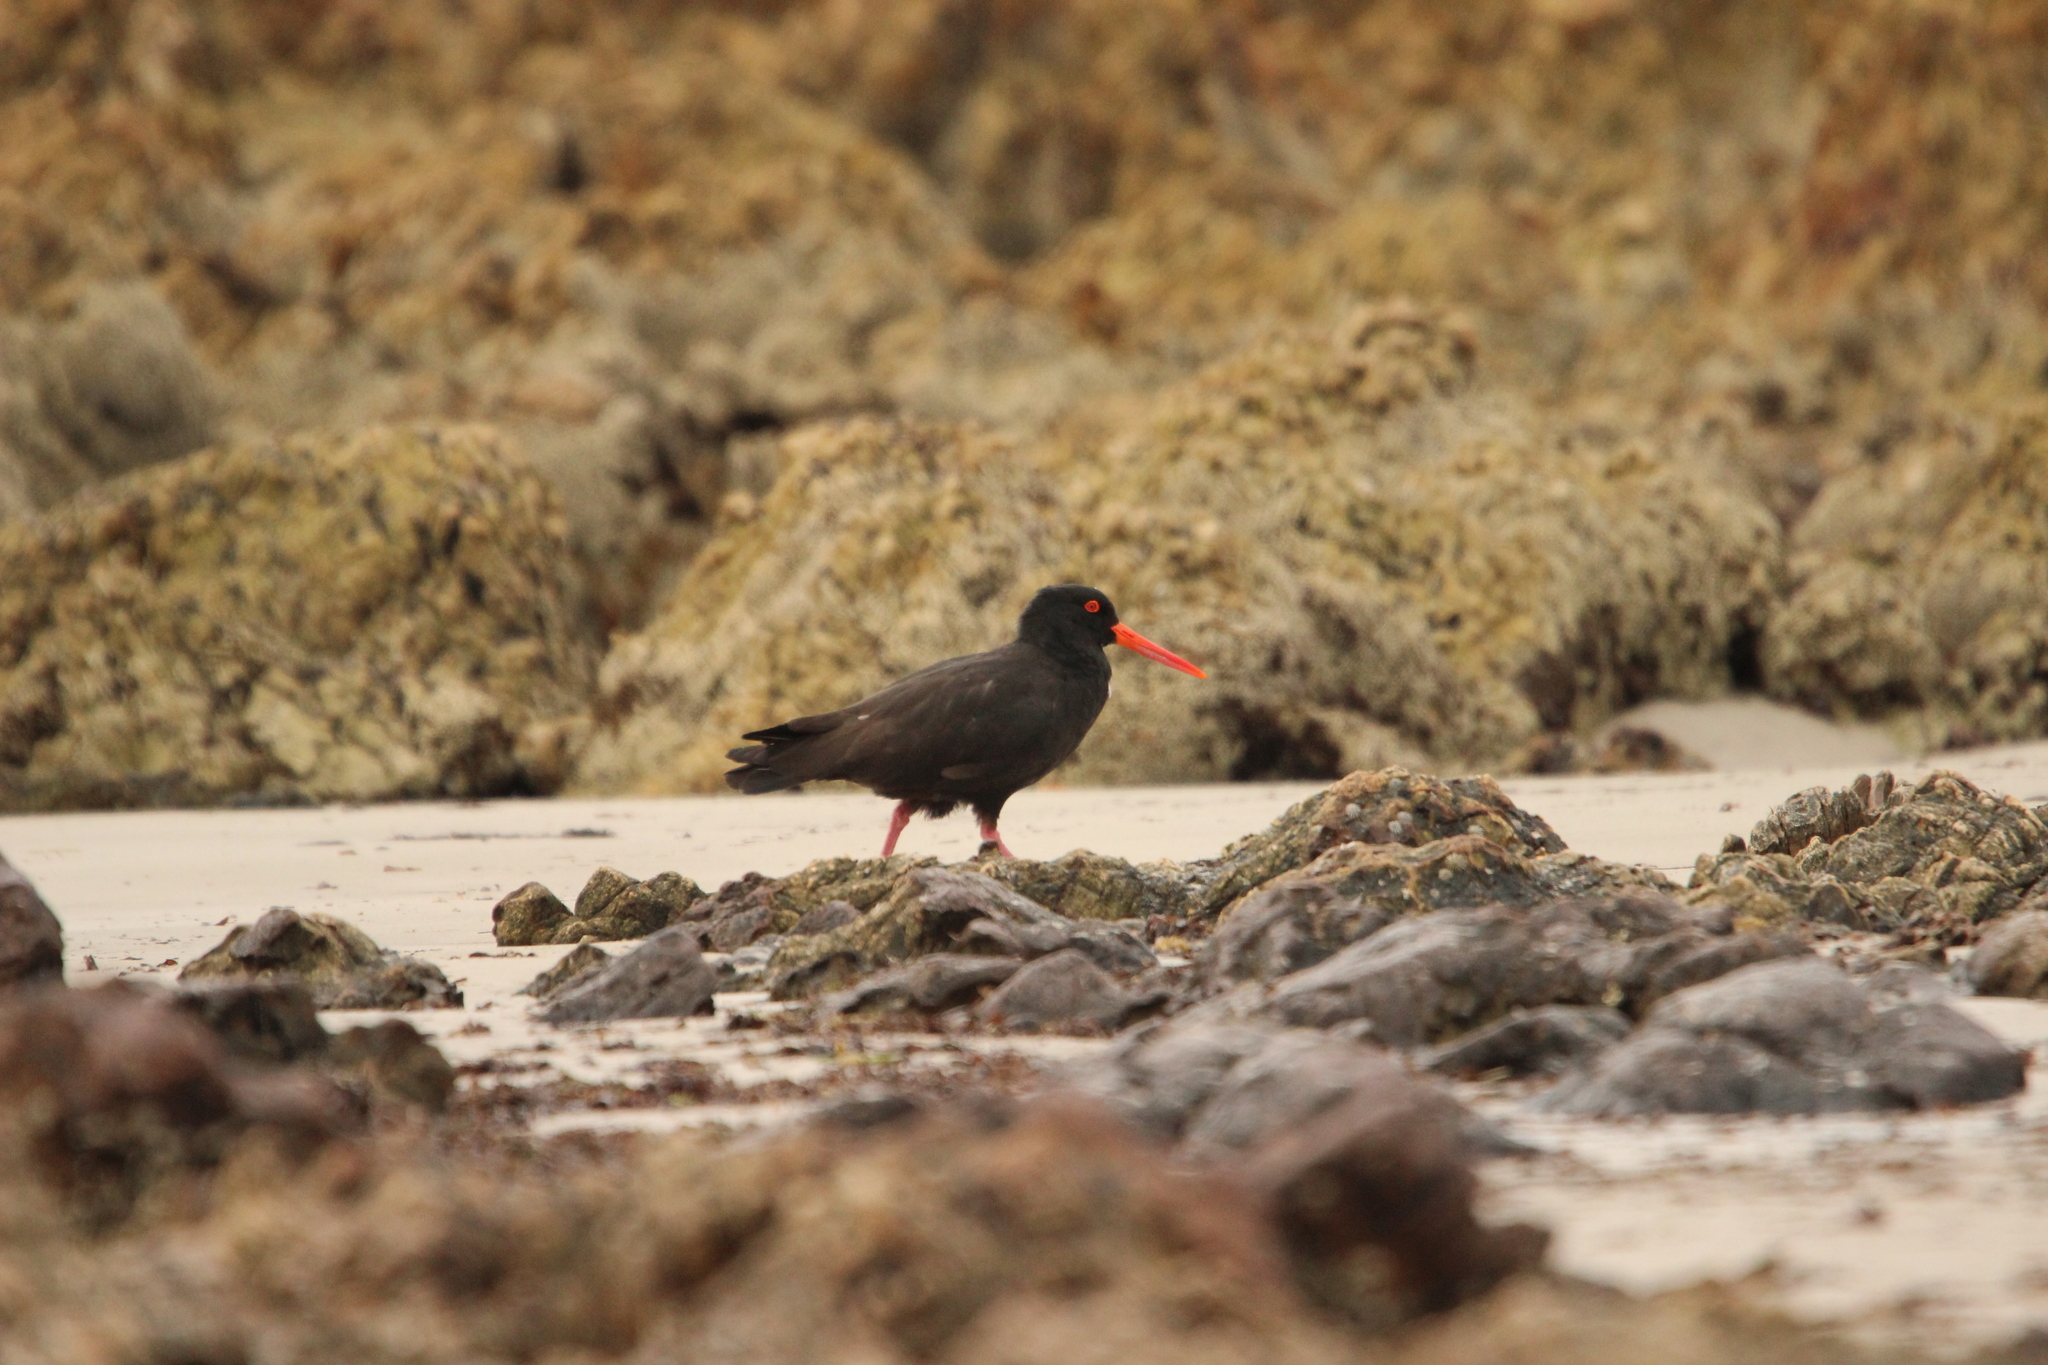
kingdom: Animalia
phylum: Chordata
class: Aves
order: Charadriiformes
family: Haematopodidae
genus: Haematopus
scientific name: Haematopus fuliginosus
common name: Sooty oystercatcher
